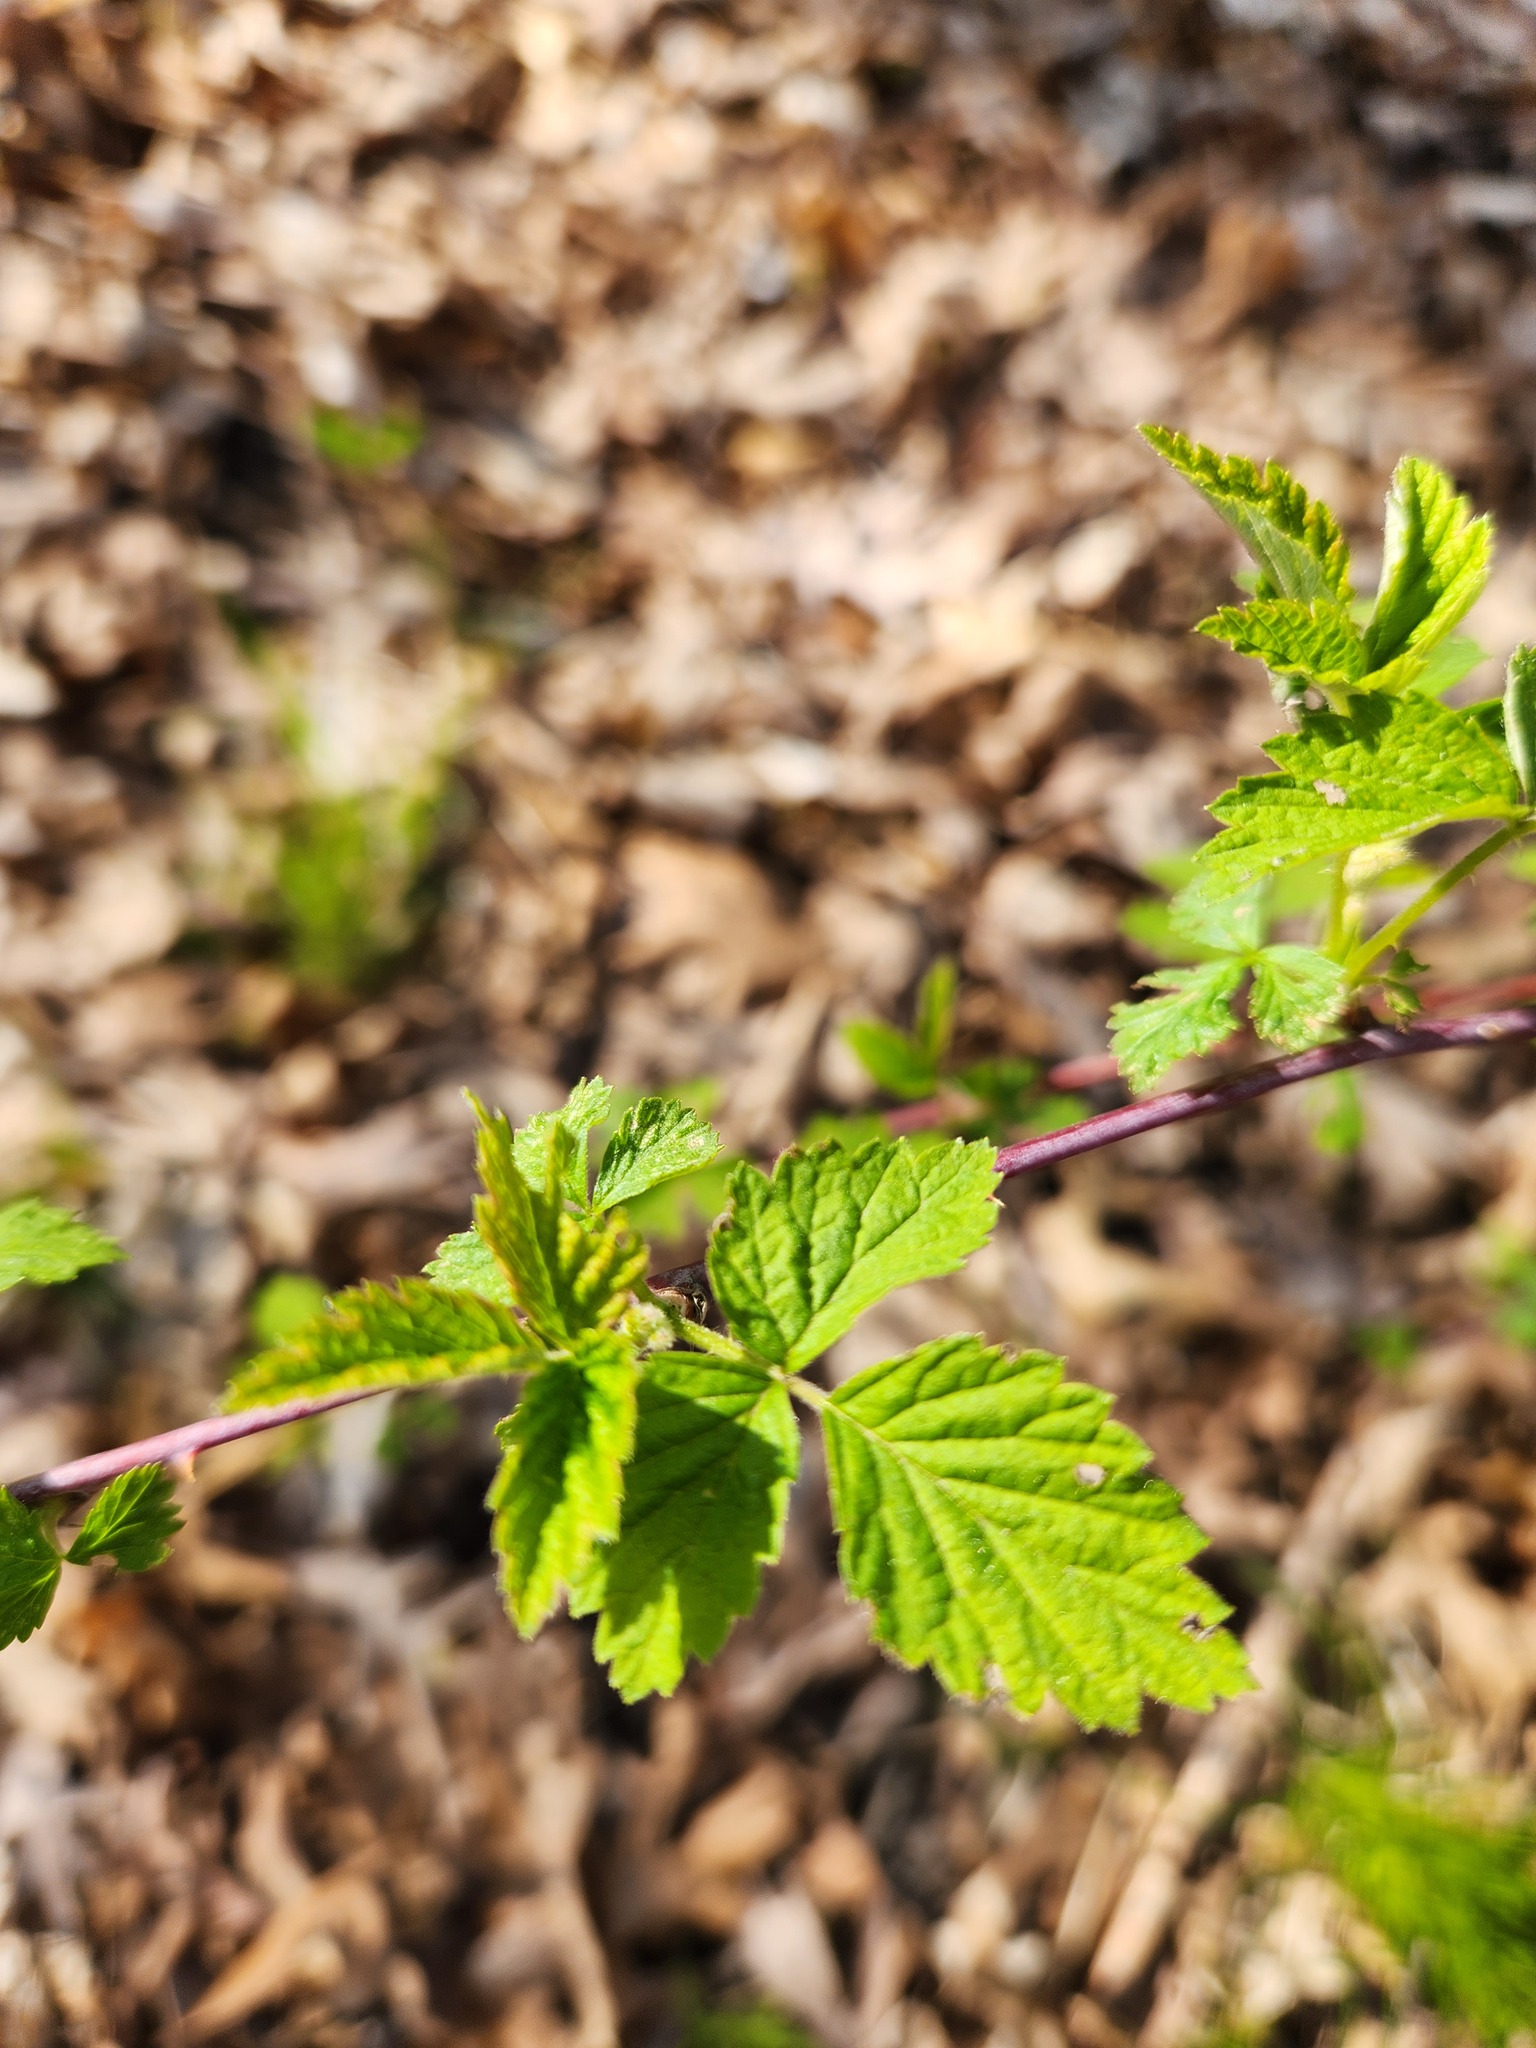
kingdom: Plantae
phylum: Tracheophyta
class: Magnoliopsida
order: Rosales
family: Rosaceae
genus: Rubus
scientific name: Rubus occidentalis
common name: Black raspberry
